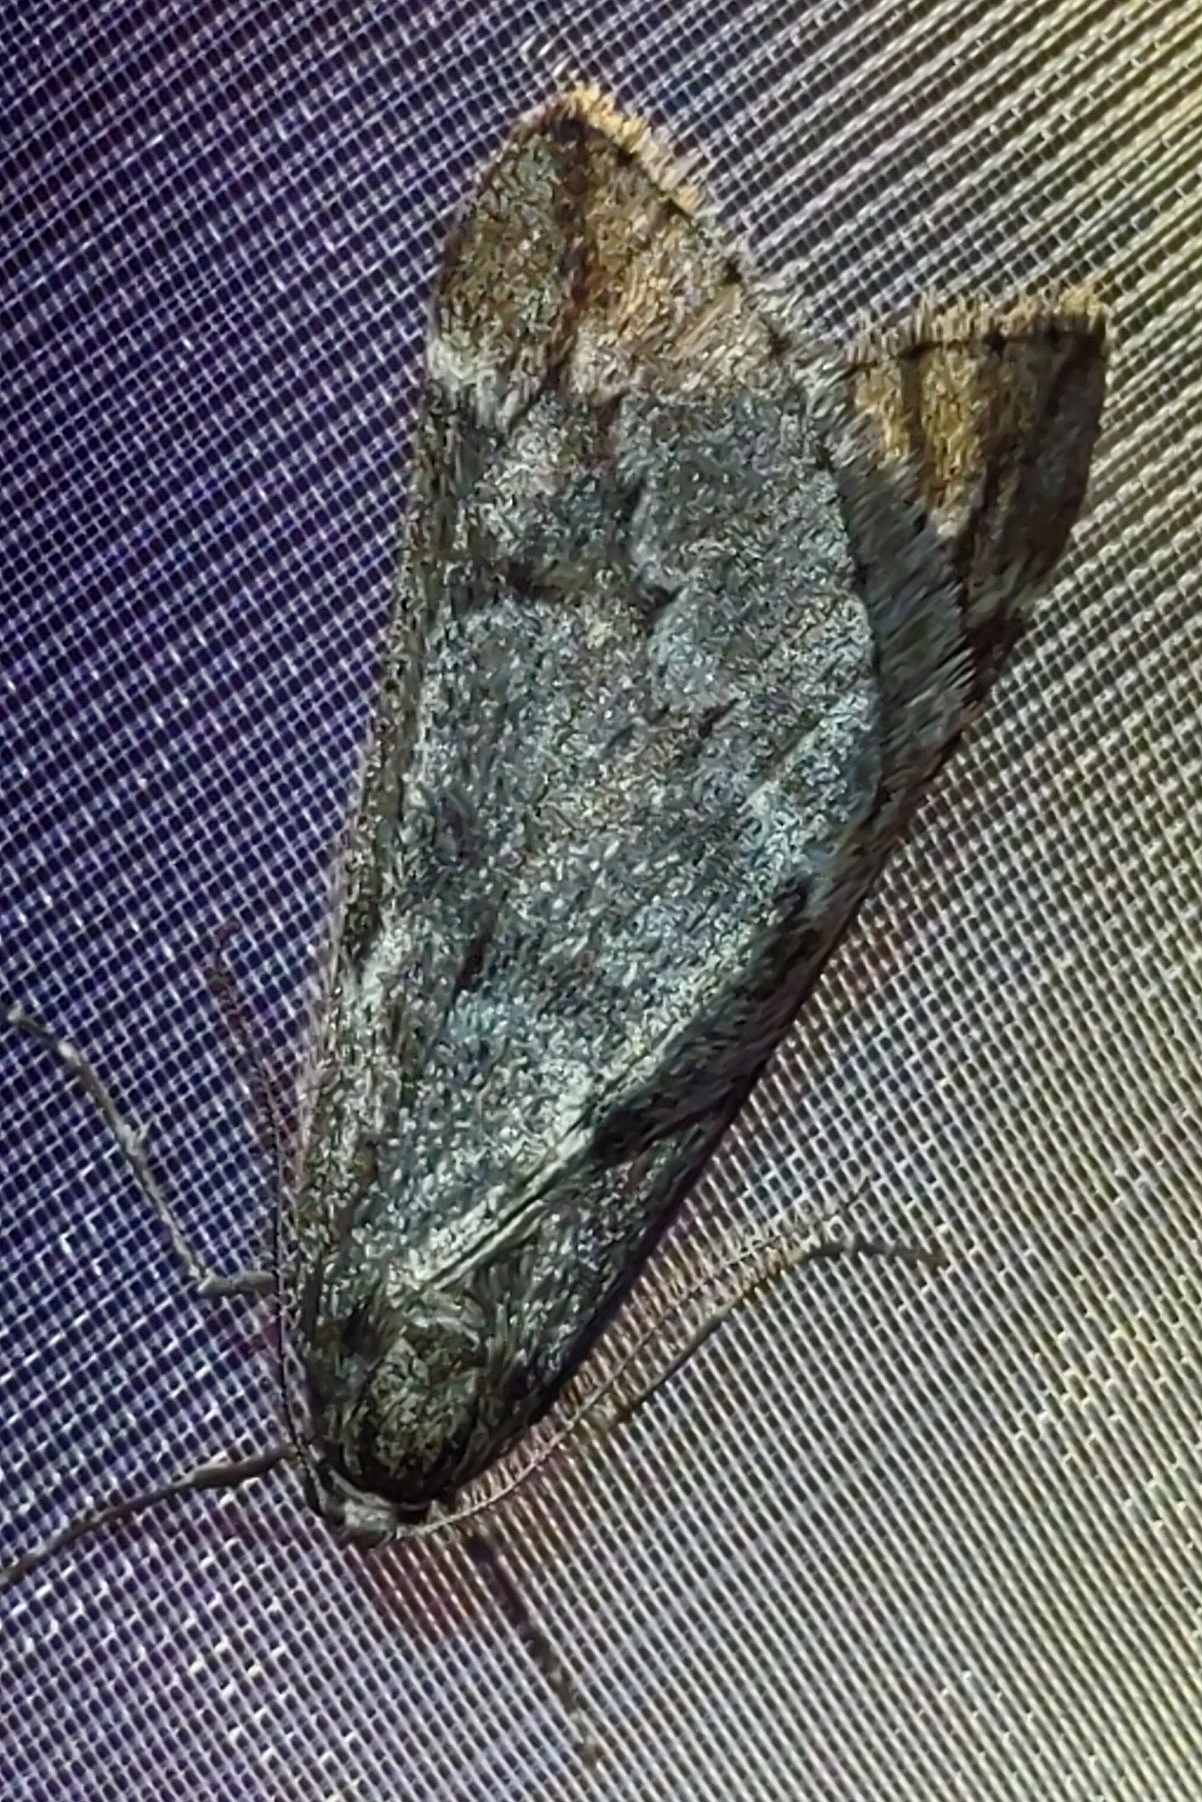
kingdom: Animalia
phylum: Arthropoda
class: Insecta
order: Lepidoptera
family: Geometridae
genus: Alsophila
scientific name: Alsophila aescularia
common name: March moth
